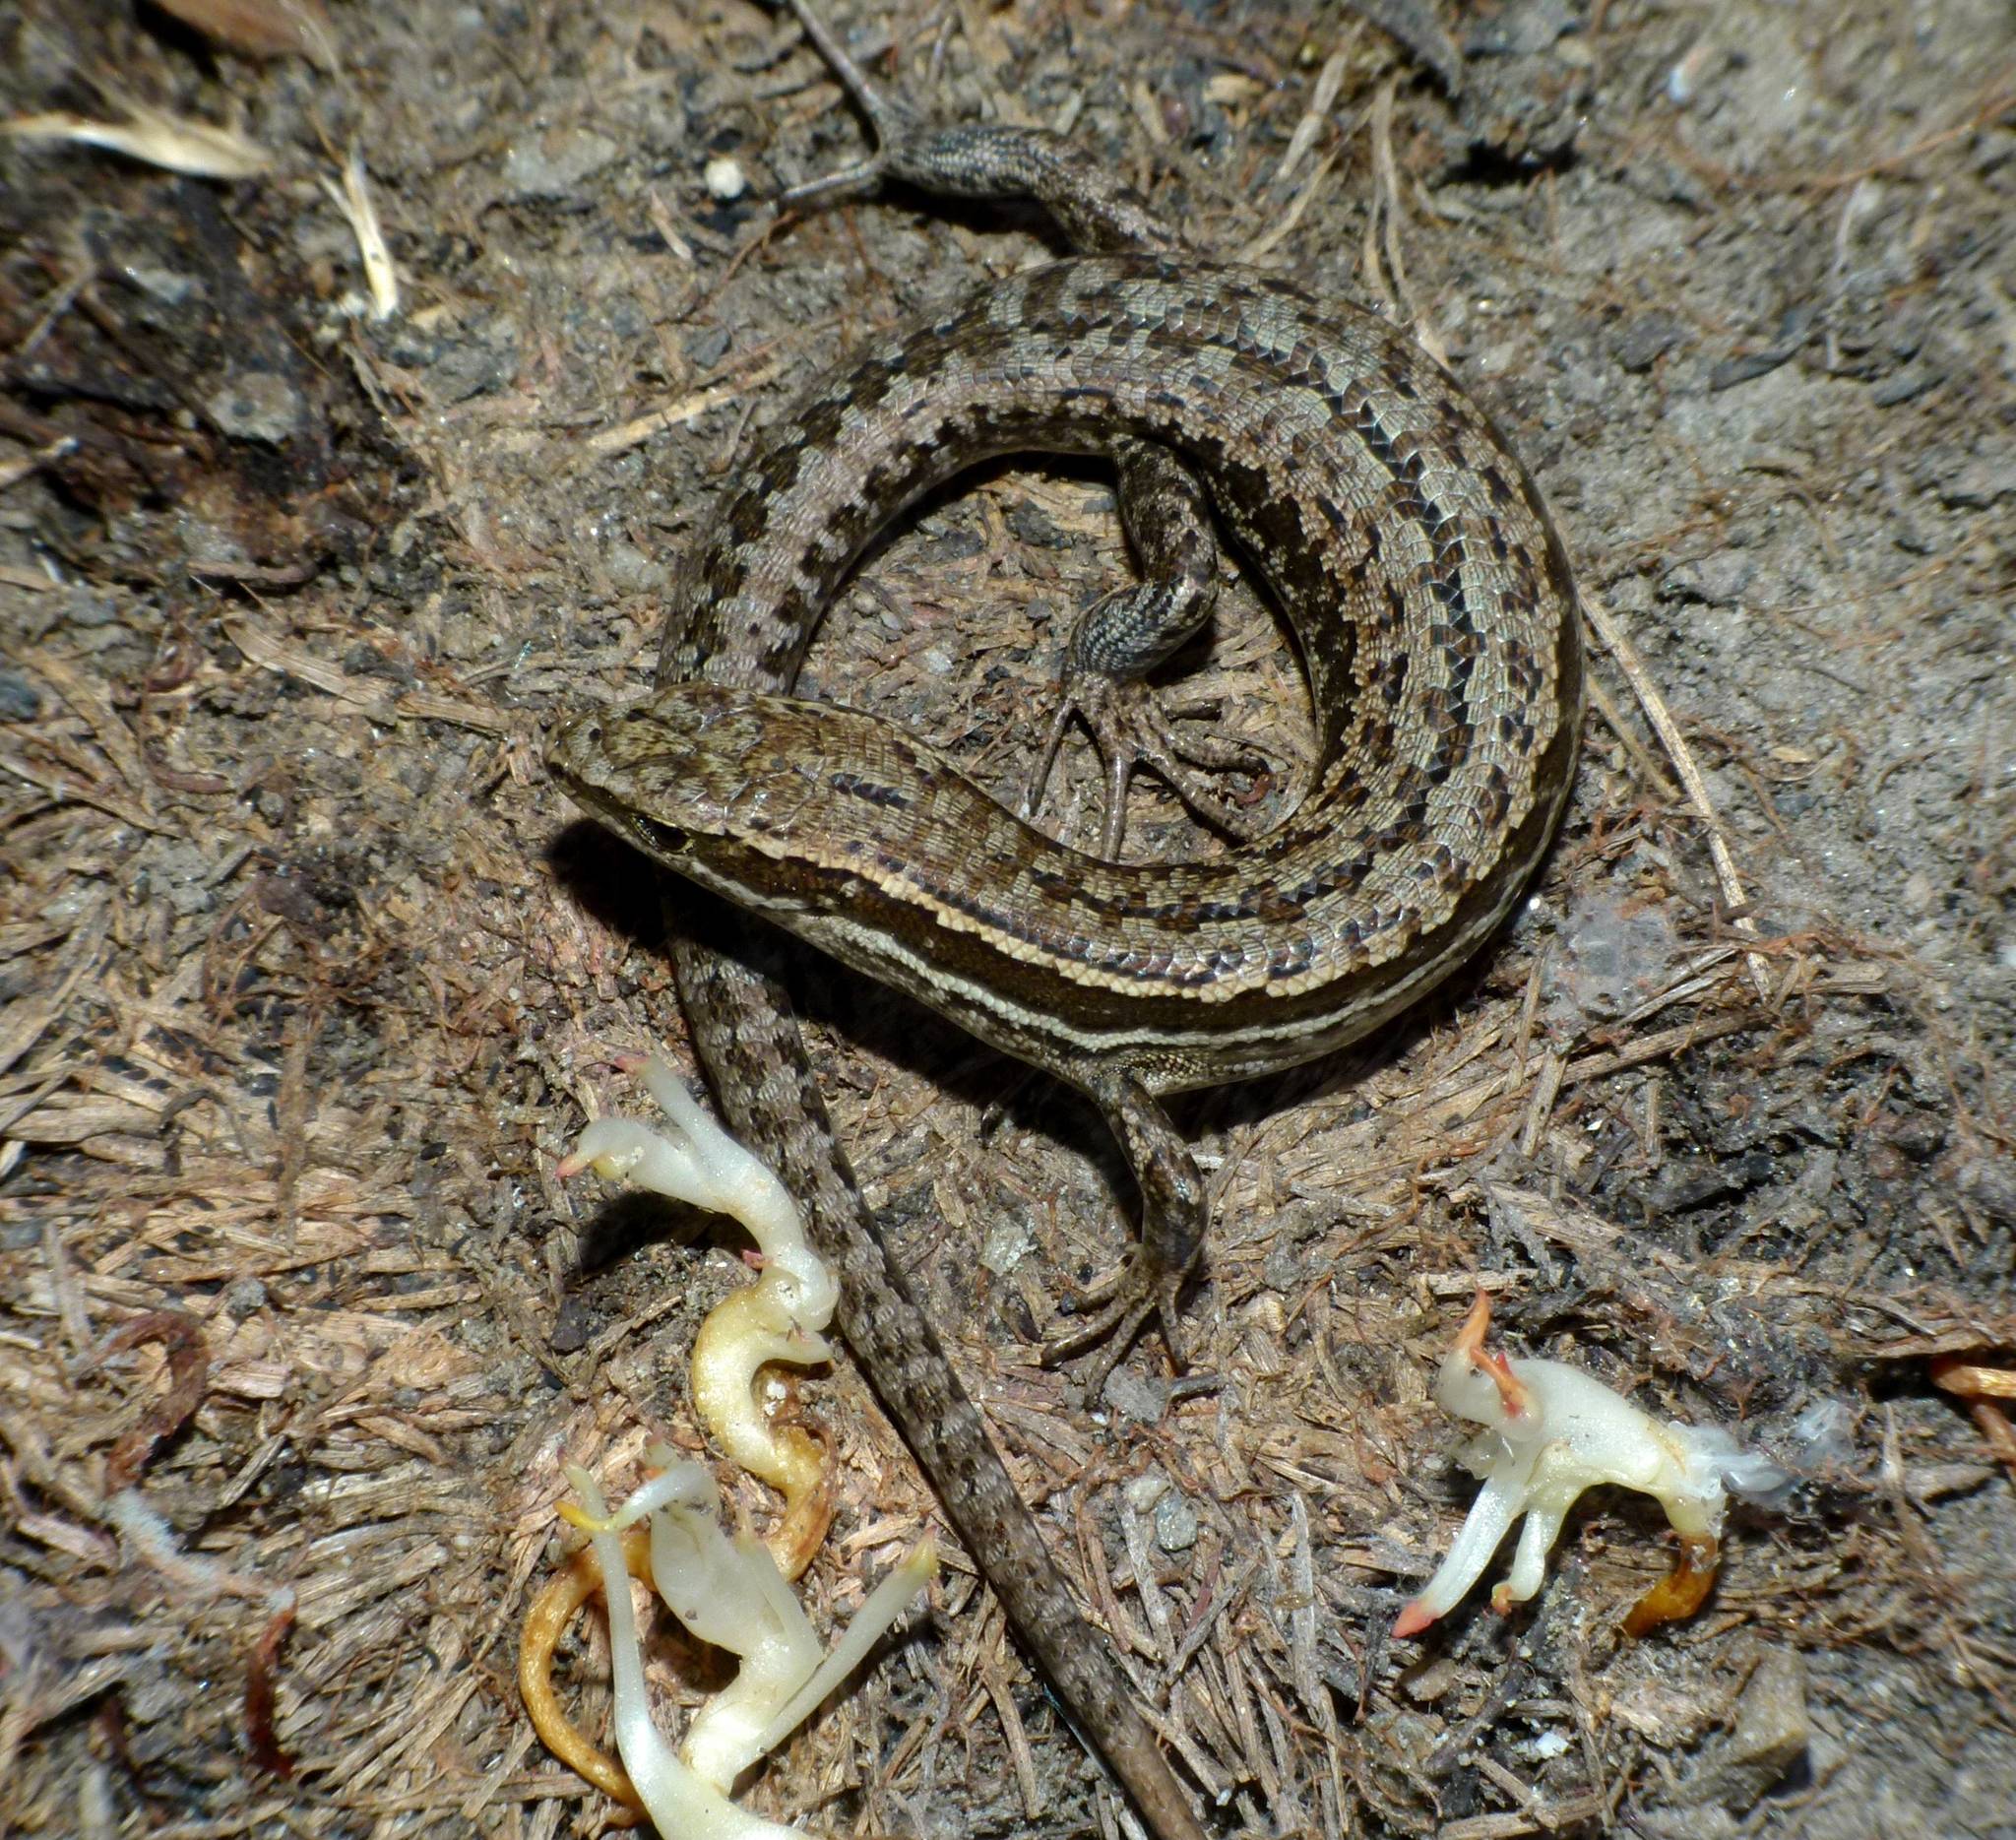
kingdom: Animalia
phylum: Chordata
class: Squamata
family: Scincidae
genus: Oligosoma
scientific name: Oligosoma maccanni
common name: Mccann’s skink
